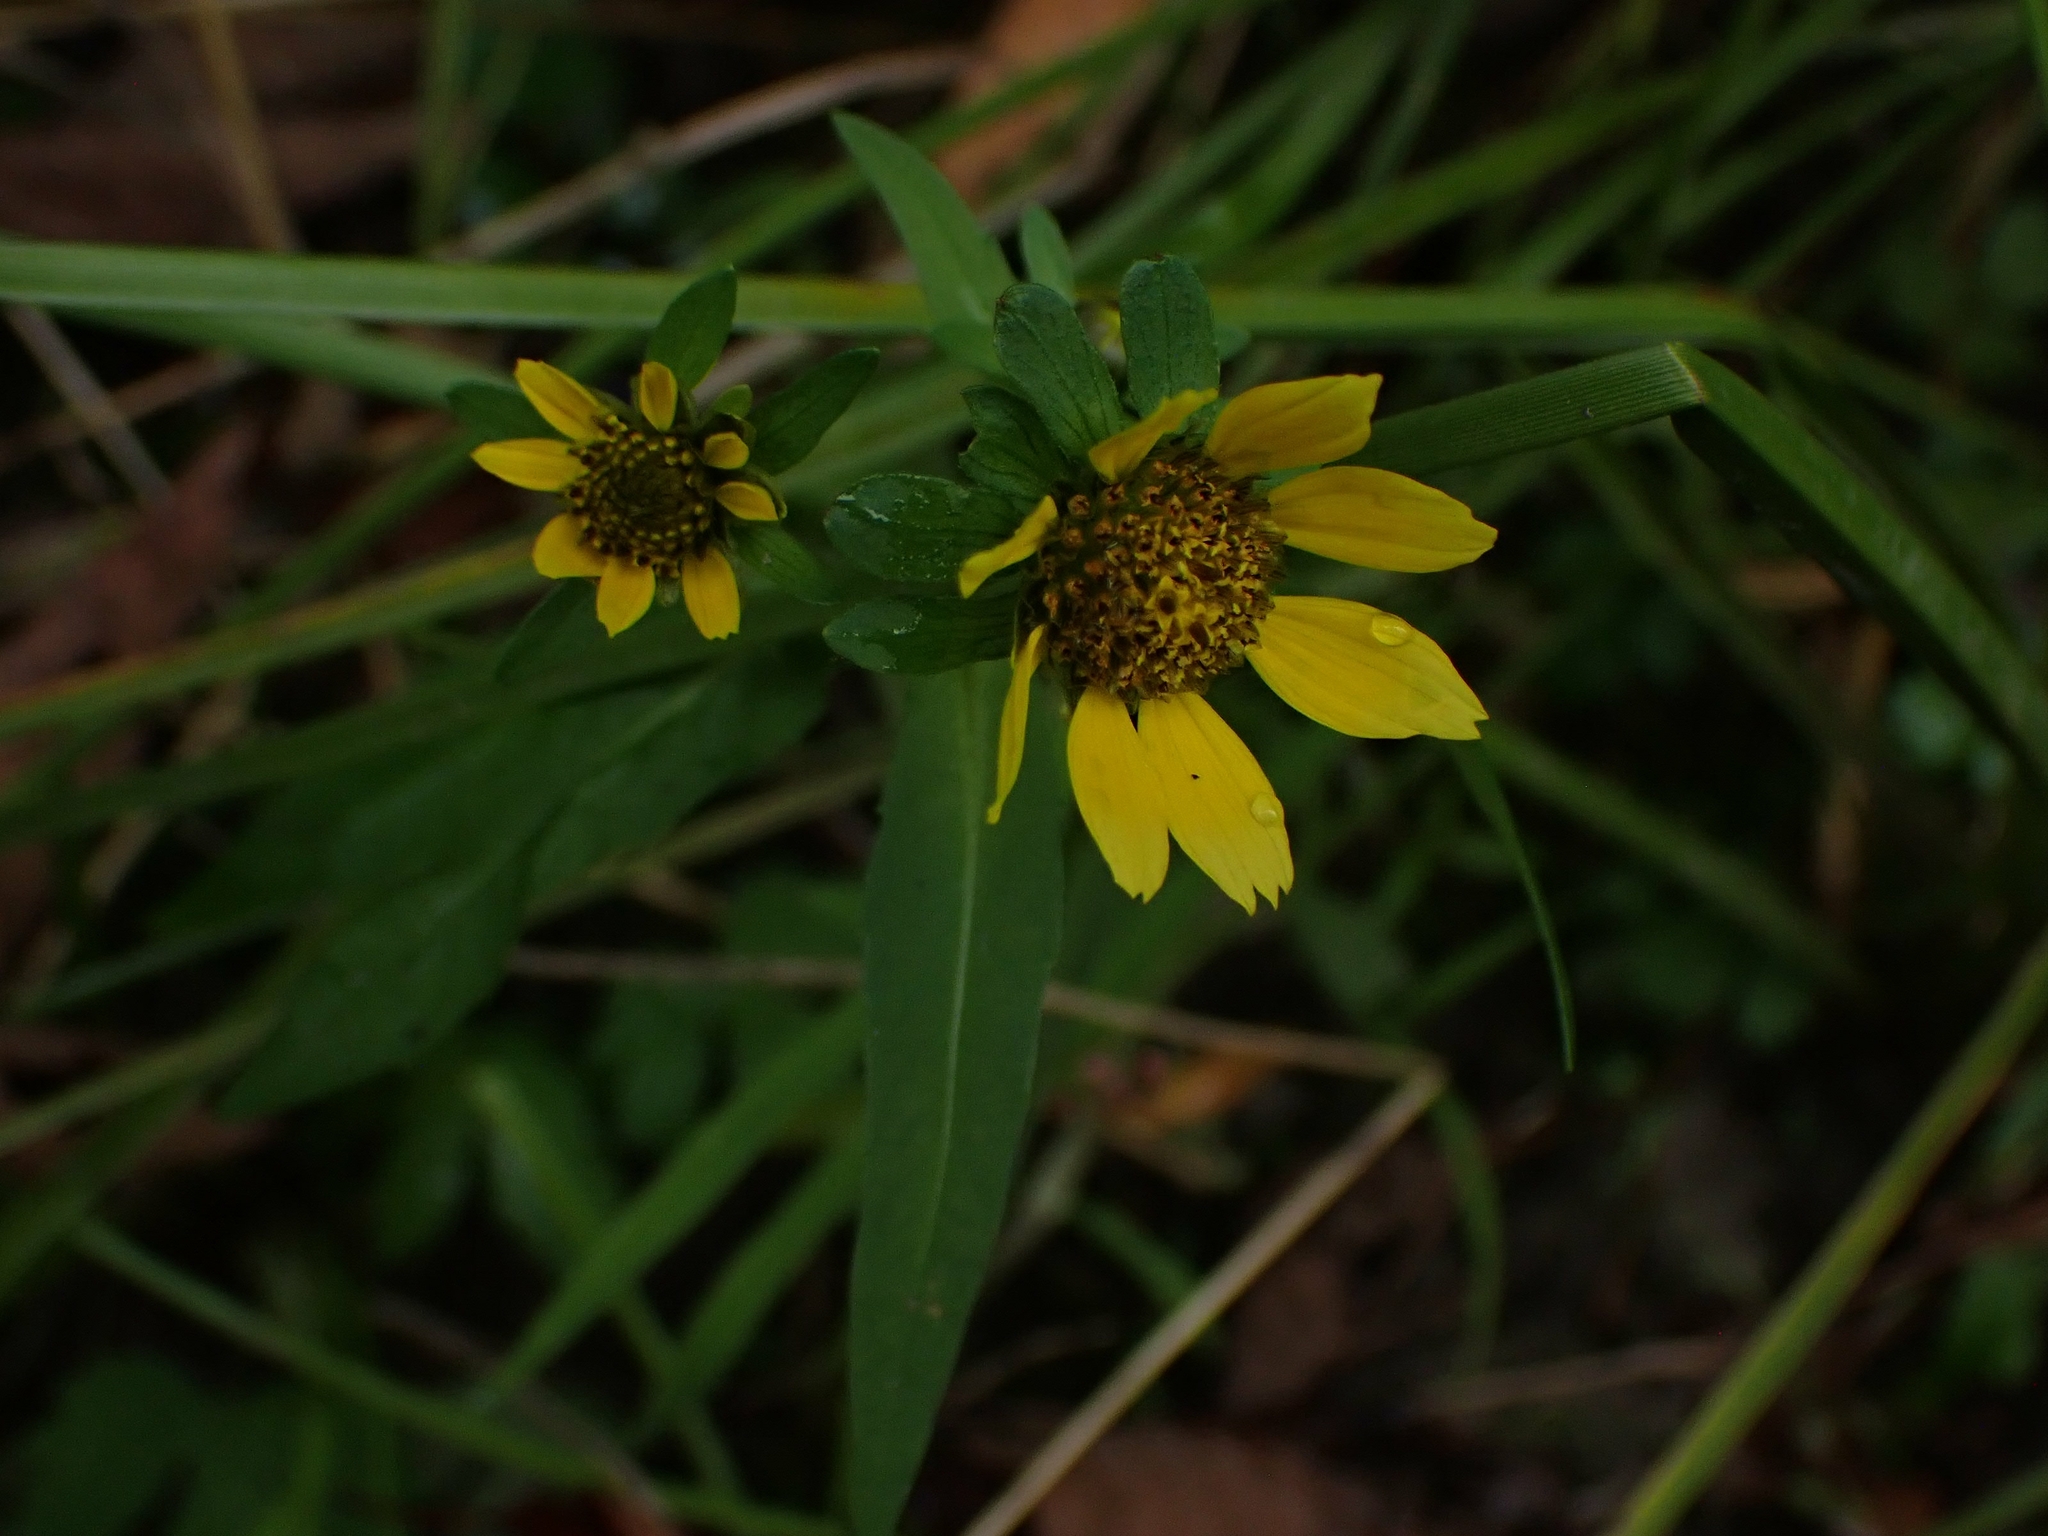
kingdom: Plantae
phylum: Tracheophyta
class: Magnoliopsida
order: Asterales
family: Asteraceae
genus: Bidens
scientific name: Bidens cernua
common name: Nodding bur-marigold
